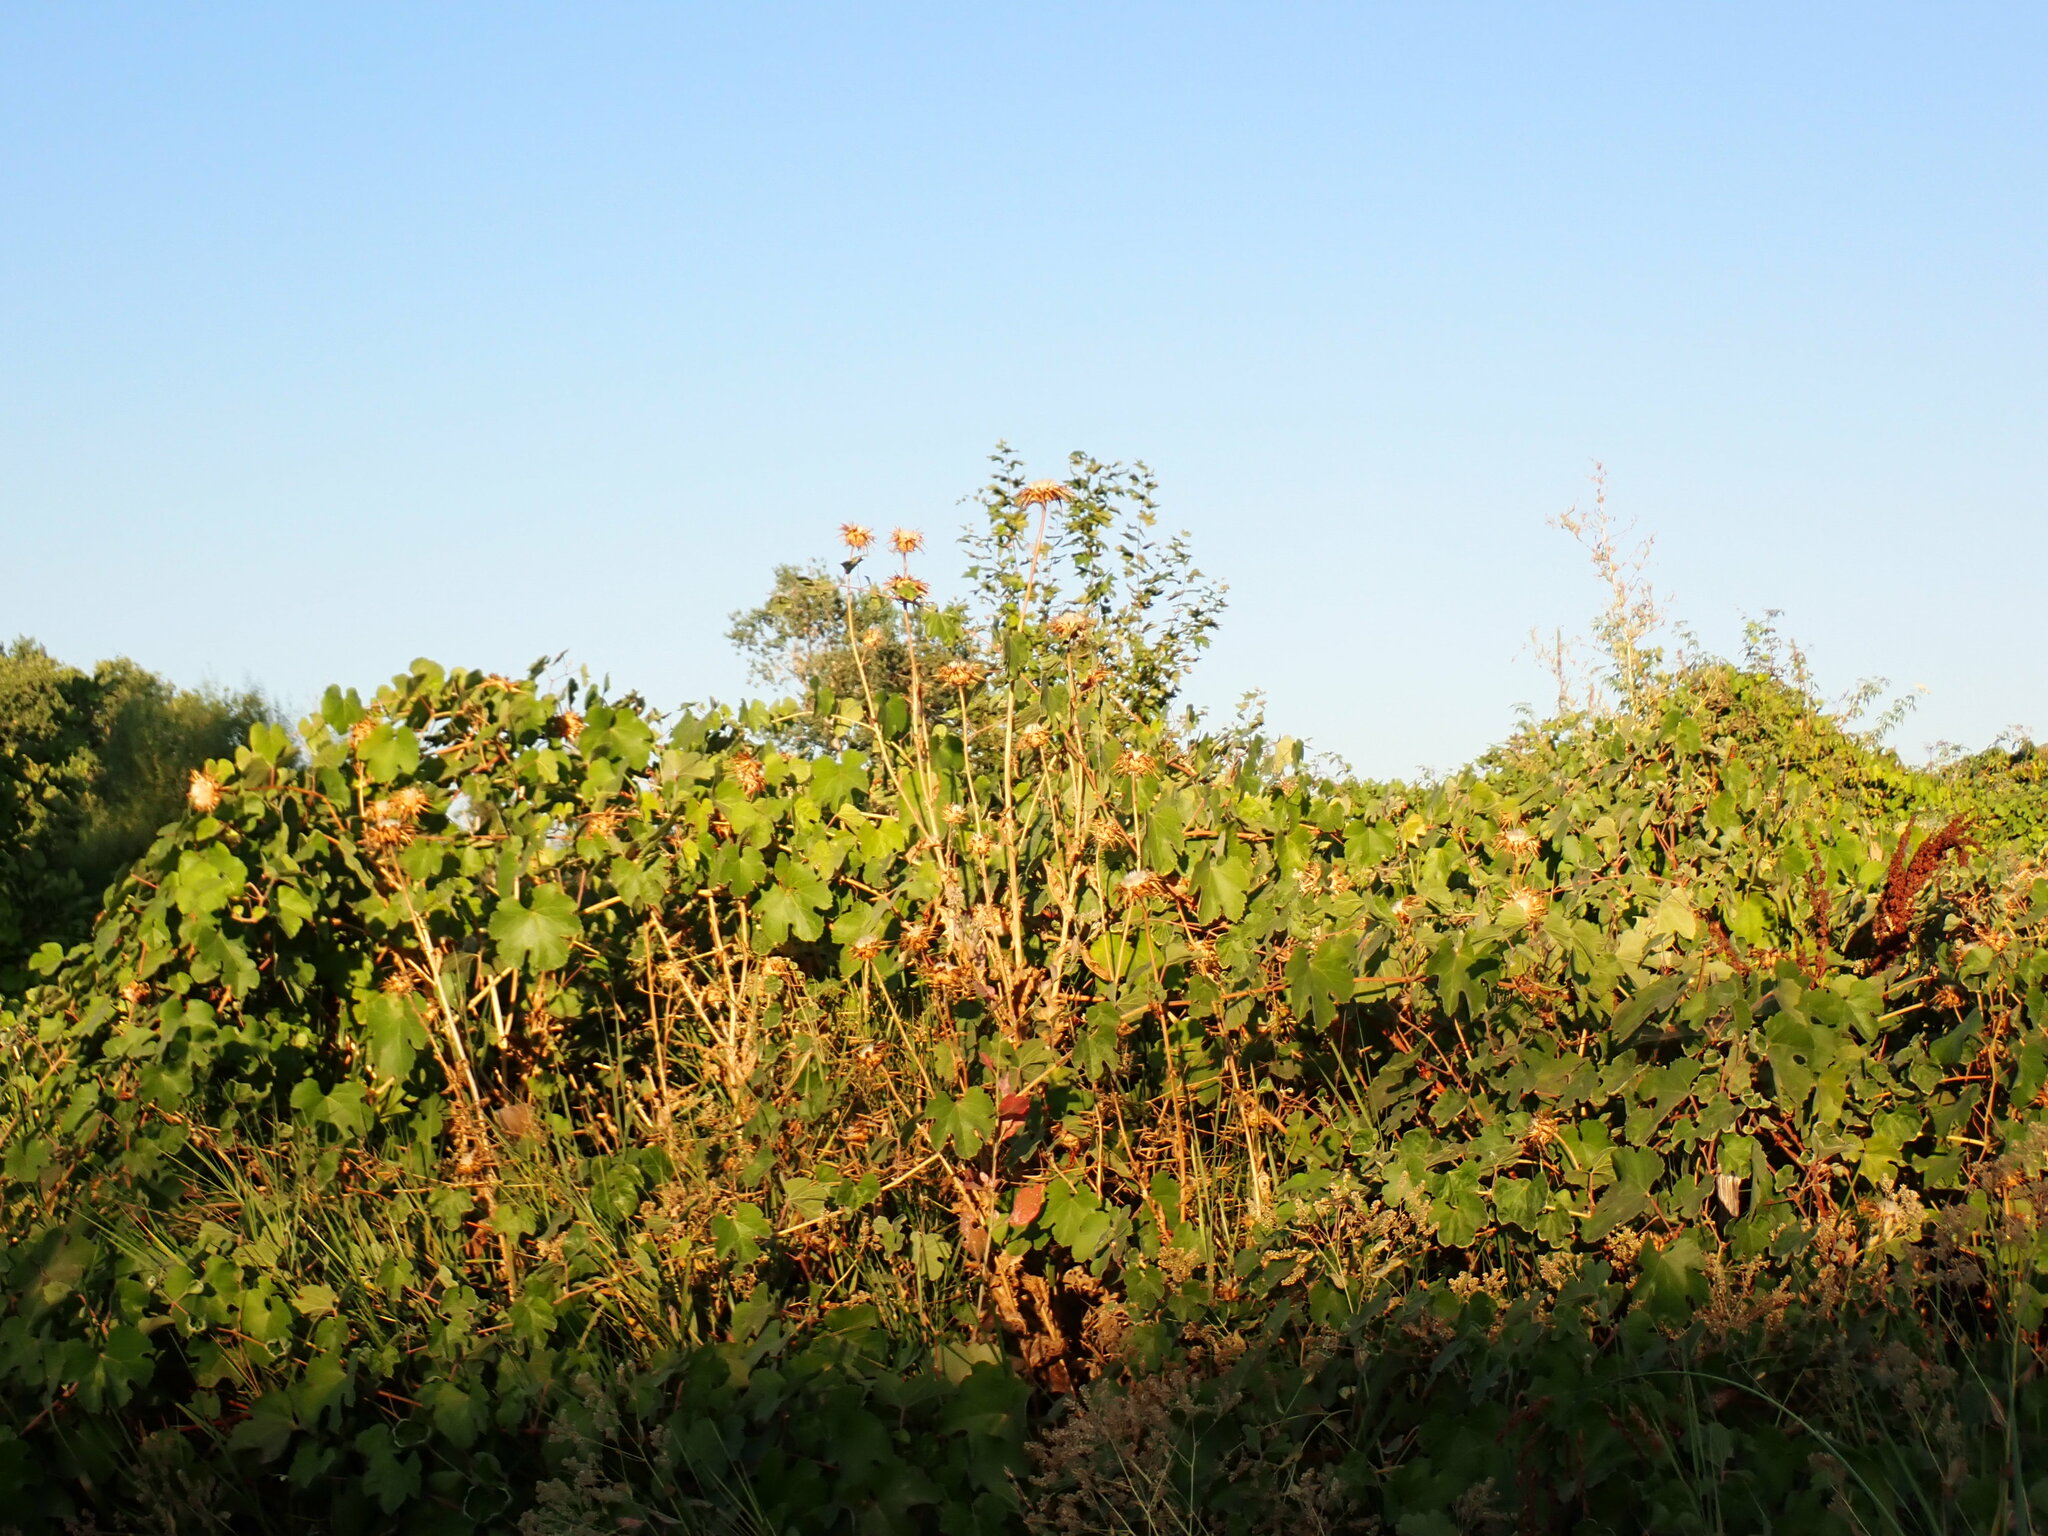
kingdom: Plantae
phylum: Tracheophyta
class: Magnoliopsida
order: Asterales
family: Asteraceae
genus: Silybum
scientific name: Silybum marianum
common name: Milk thistle
